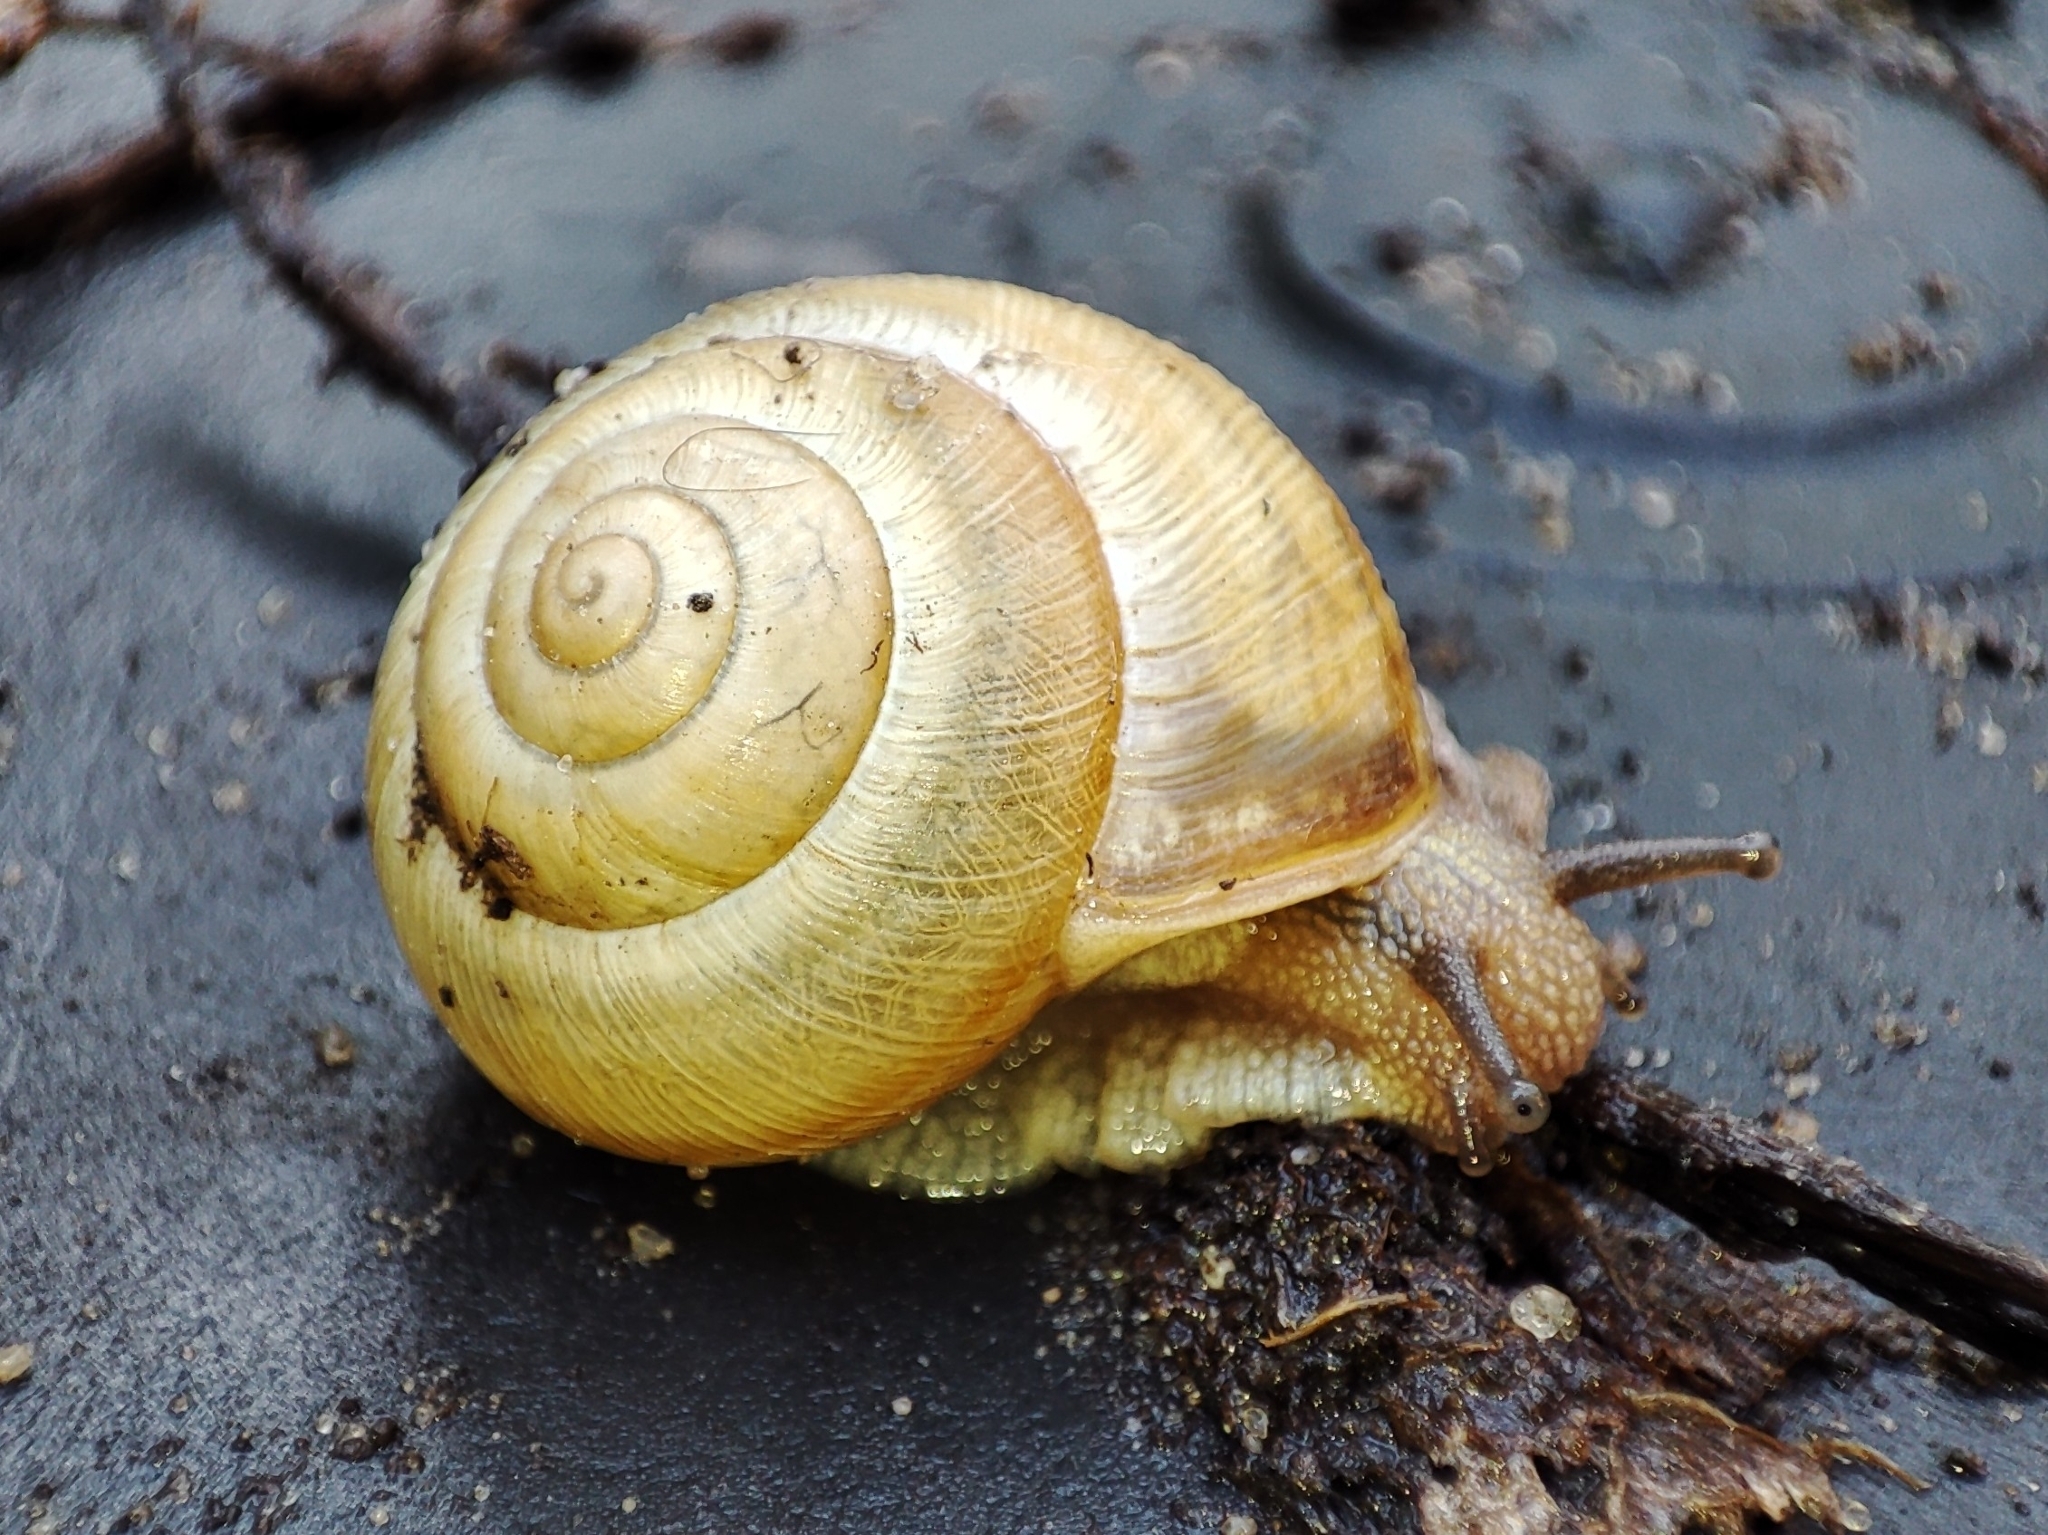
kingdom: Animalia
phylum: Mollusca
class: Gastropoda
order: Stylommatophora
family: Helicidae
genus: Caucasotachea
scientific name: Caucasotachea vindobonensis
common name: European helicid land snail
